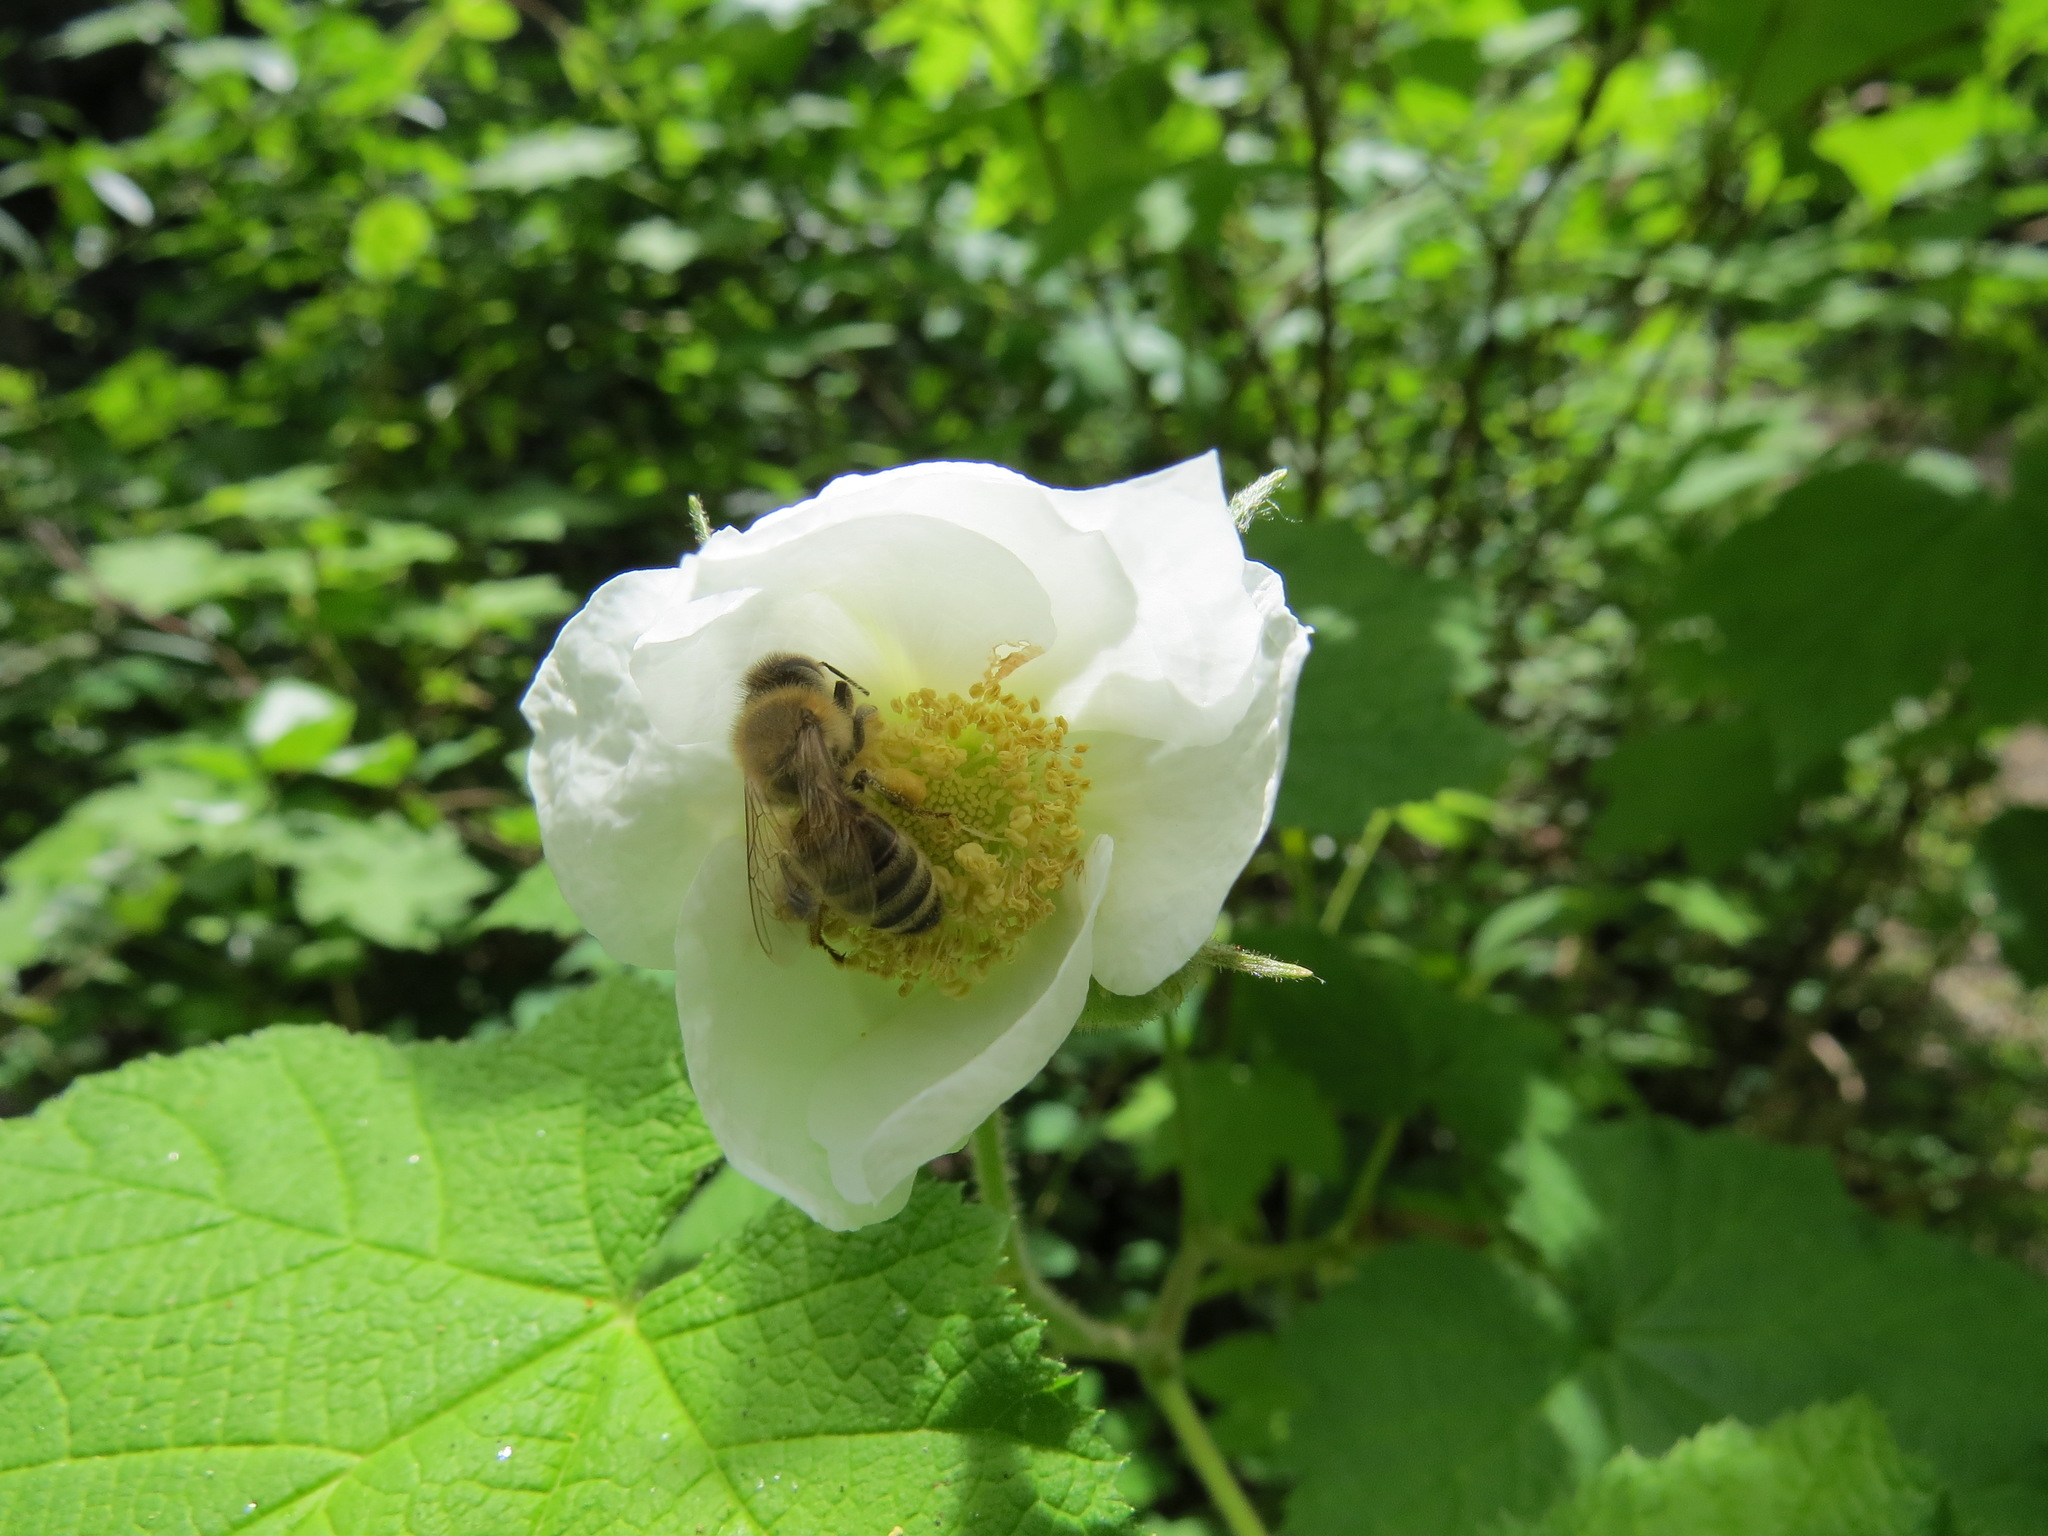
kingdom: Animalia
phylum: Arthropoda
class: Insecta
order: Hymenoptera
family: Apidae
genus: Apis
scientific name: Apis mellifera
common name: Honey bee
